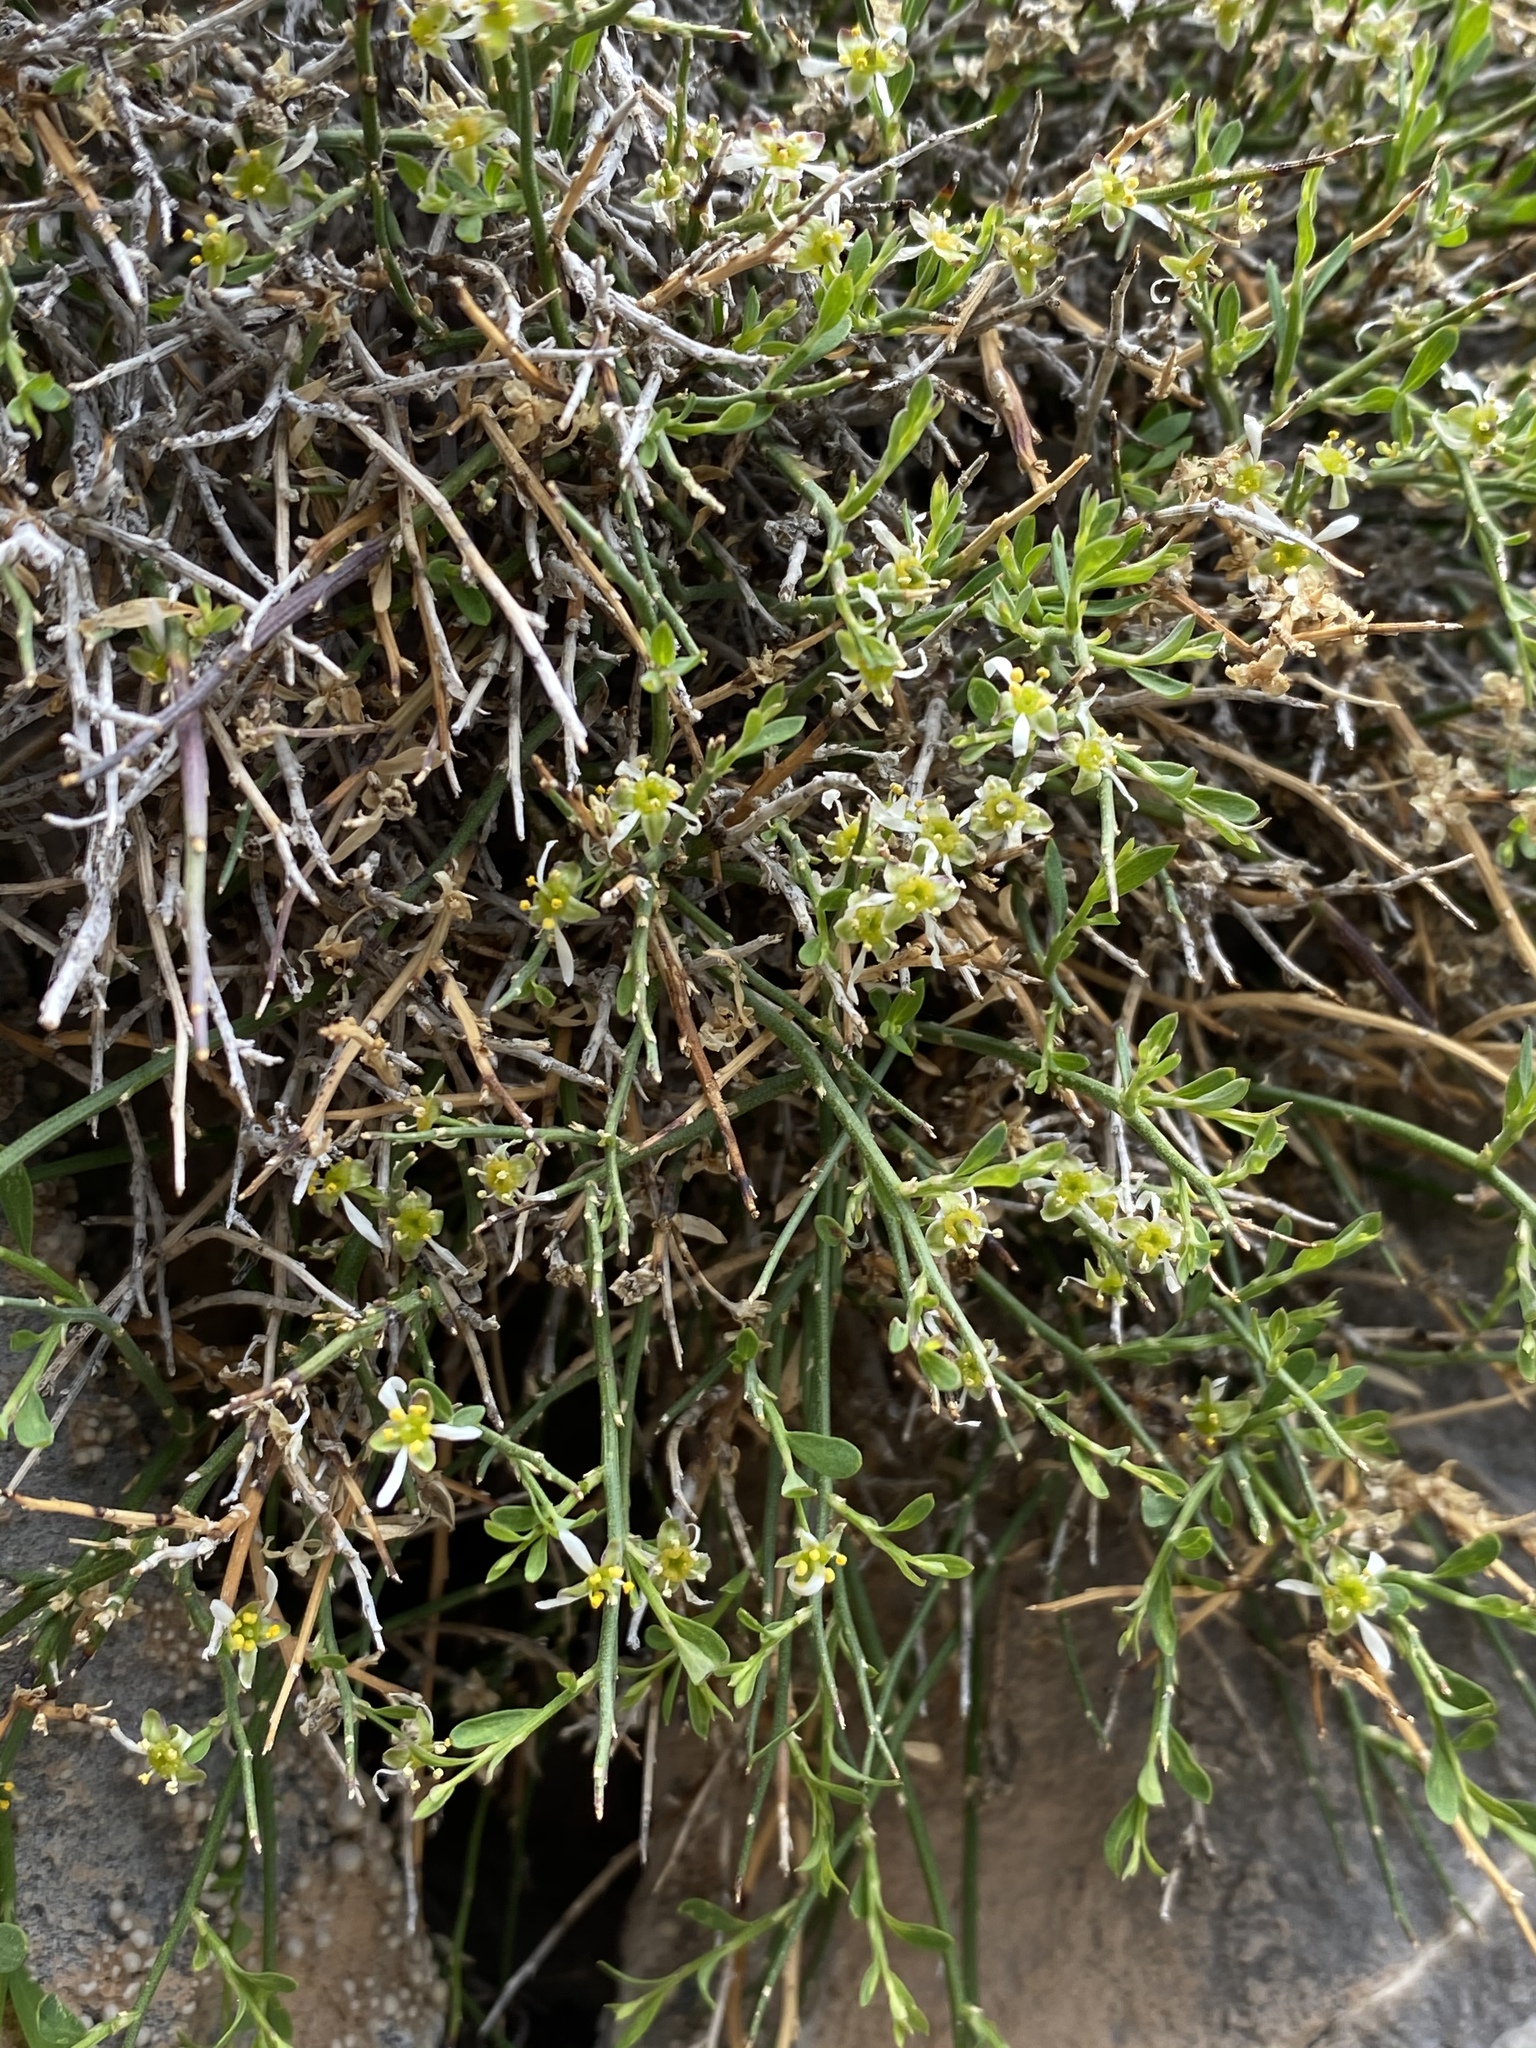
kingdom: Plantae
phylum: Tracheophyta
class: Magnoliopsida
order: Crossosomatales
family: Crossosomataceae
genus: Glossopetalon
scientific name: Glossopetalon spinescens
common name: Spring greasebush
